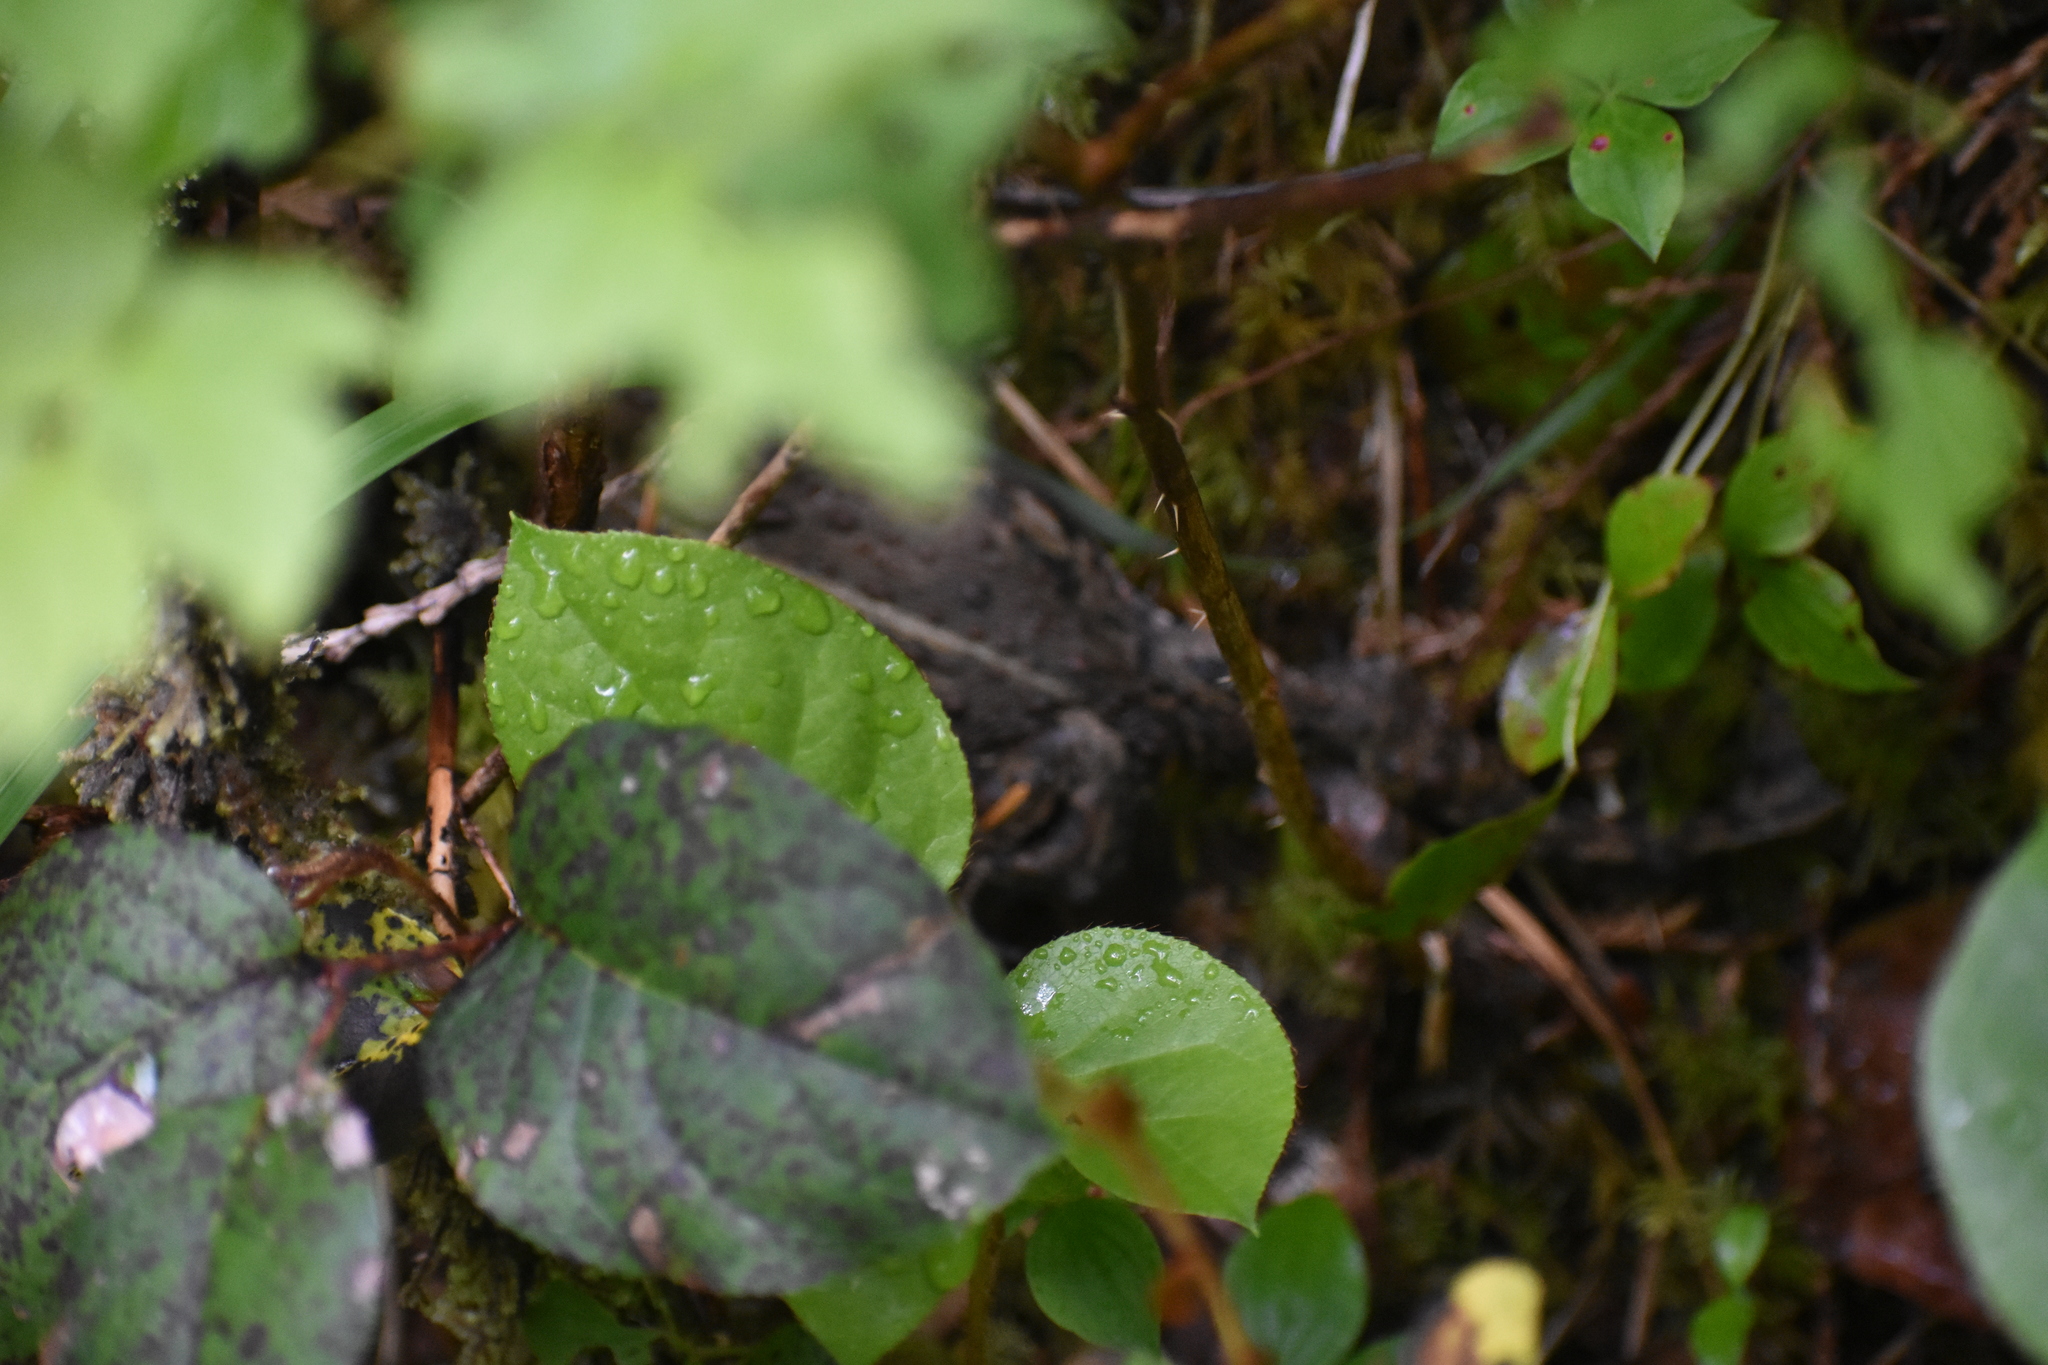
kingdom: Plantae
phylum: Tracheophyta
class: Magnoliopsida
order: Ericales
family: Ericaceae
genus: Gaultheria
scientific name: Gaultheria shallon
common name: Shallon
